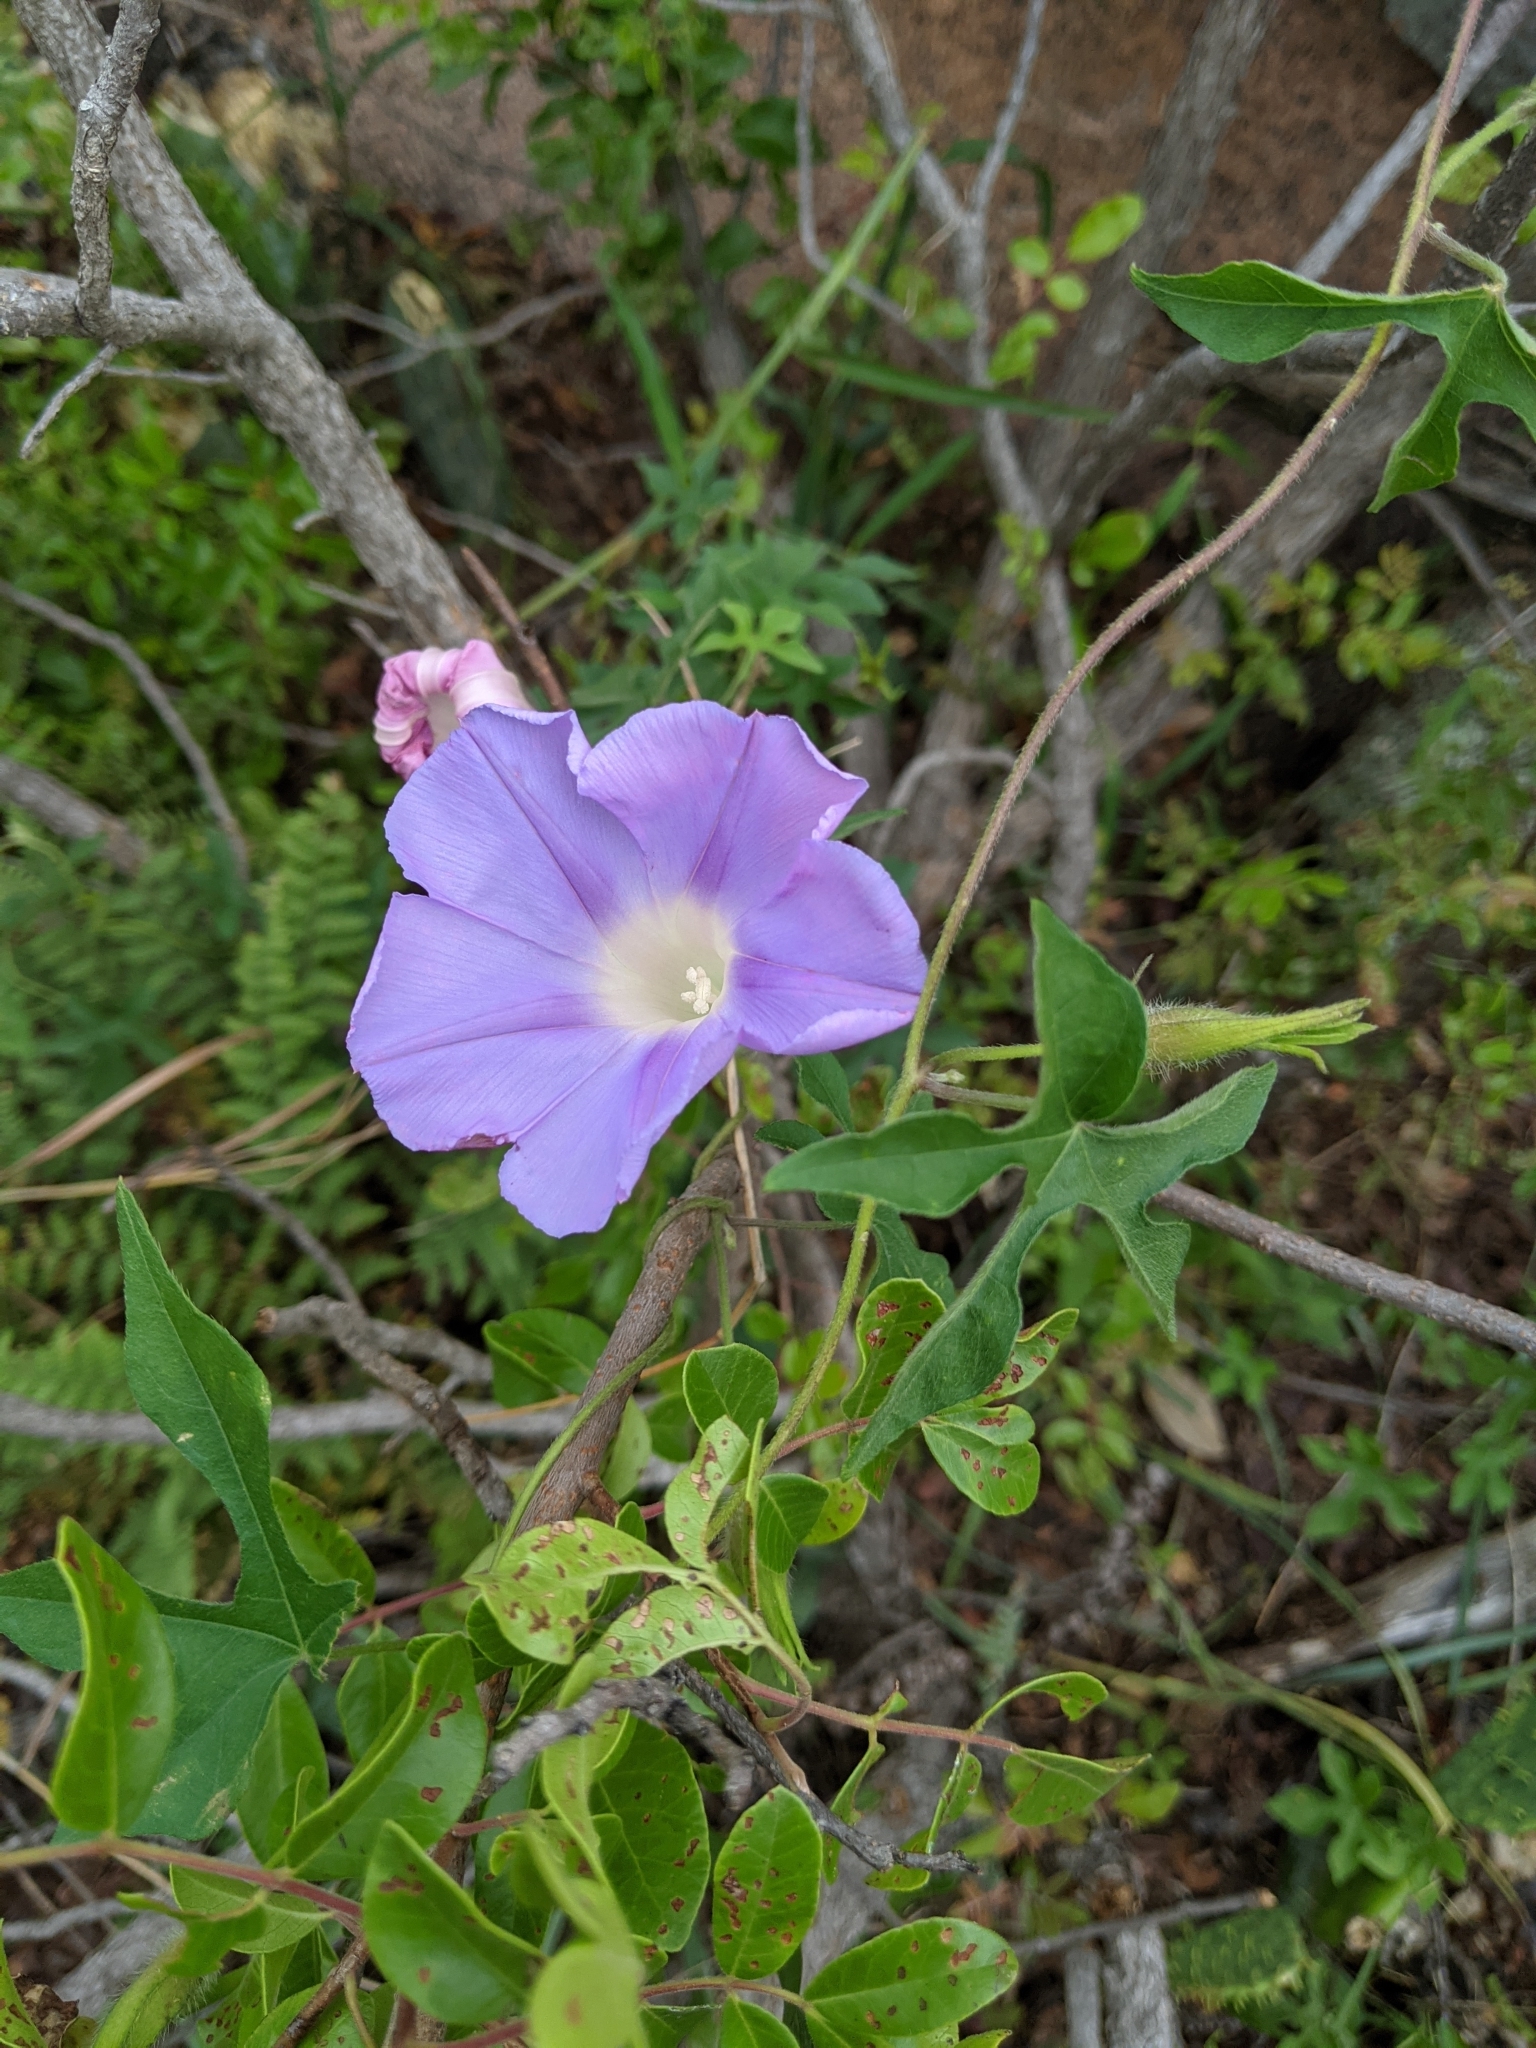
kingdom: Plantae
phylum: Tracheophyta
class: Magnoliopsida
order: Solanales
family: Convolvulaceae
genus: Ipomoea
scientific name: Ipomoea lindheimeri
